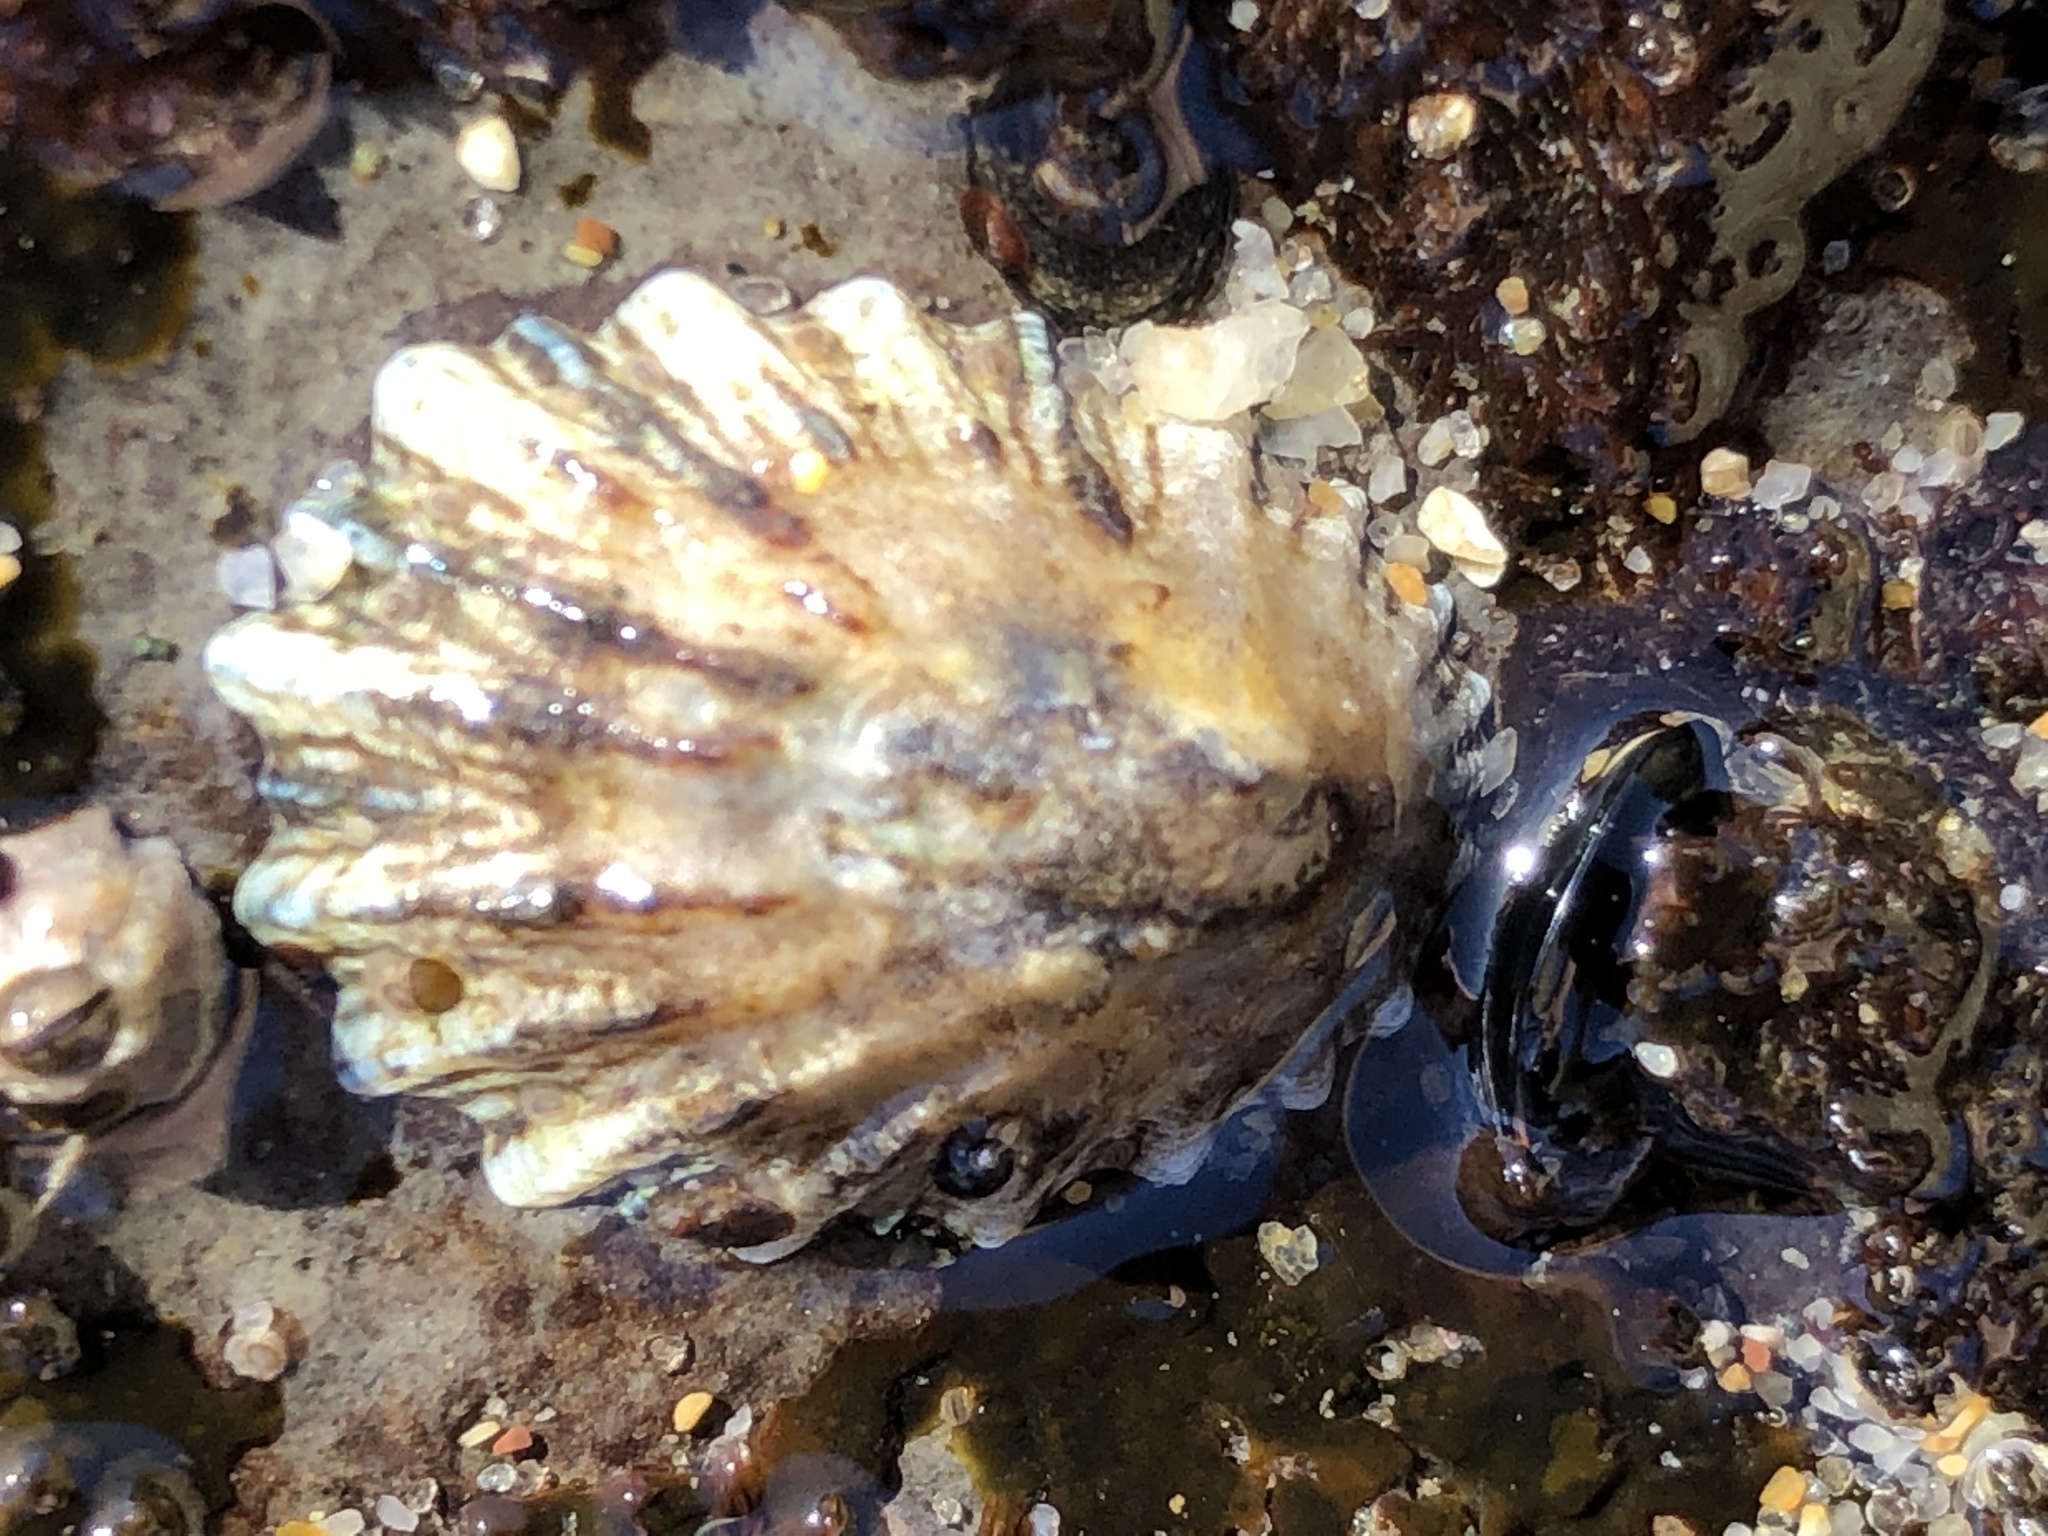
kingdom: Animalia
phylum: Mollusca
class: Gastropoda
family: Lottiidae
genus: Lottia
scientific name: Lottia scabra
